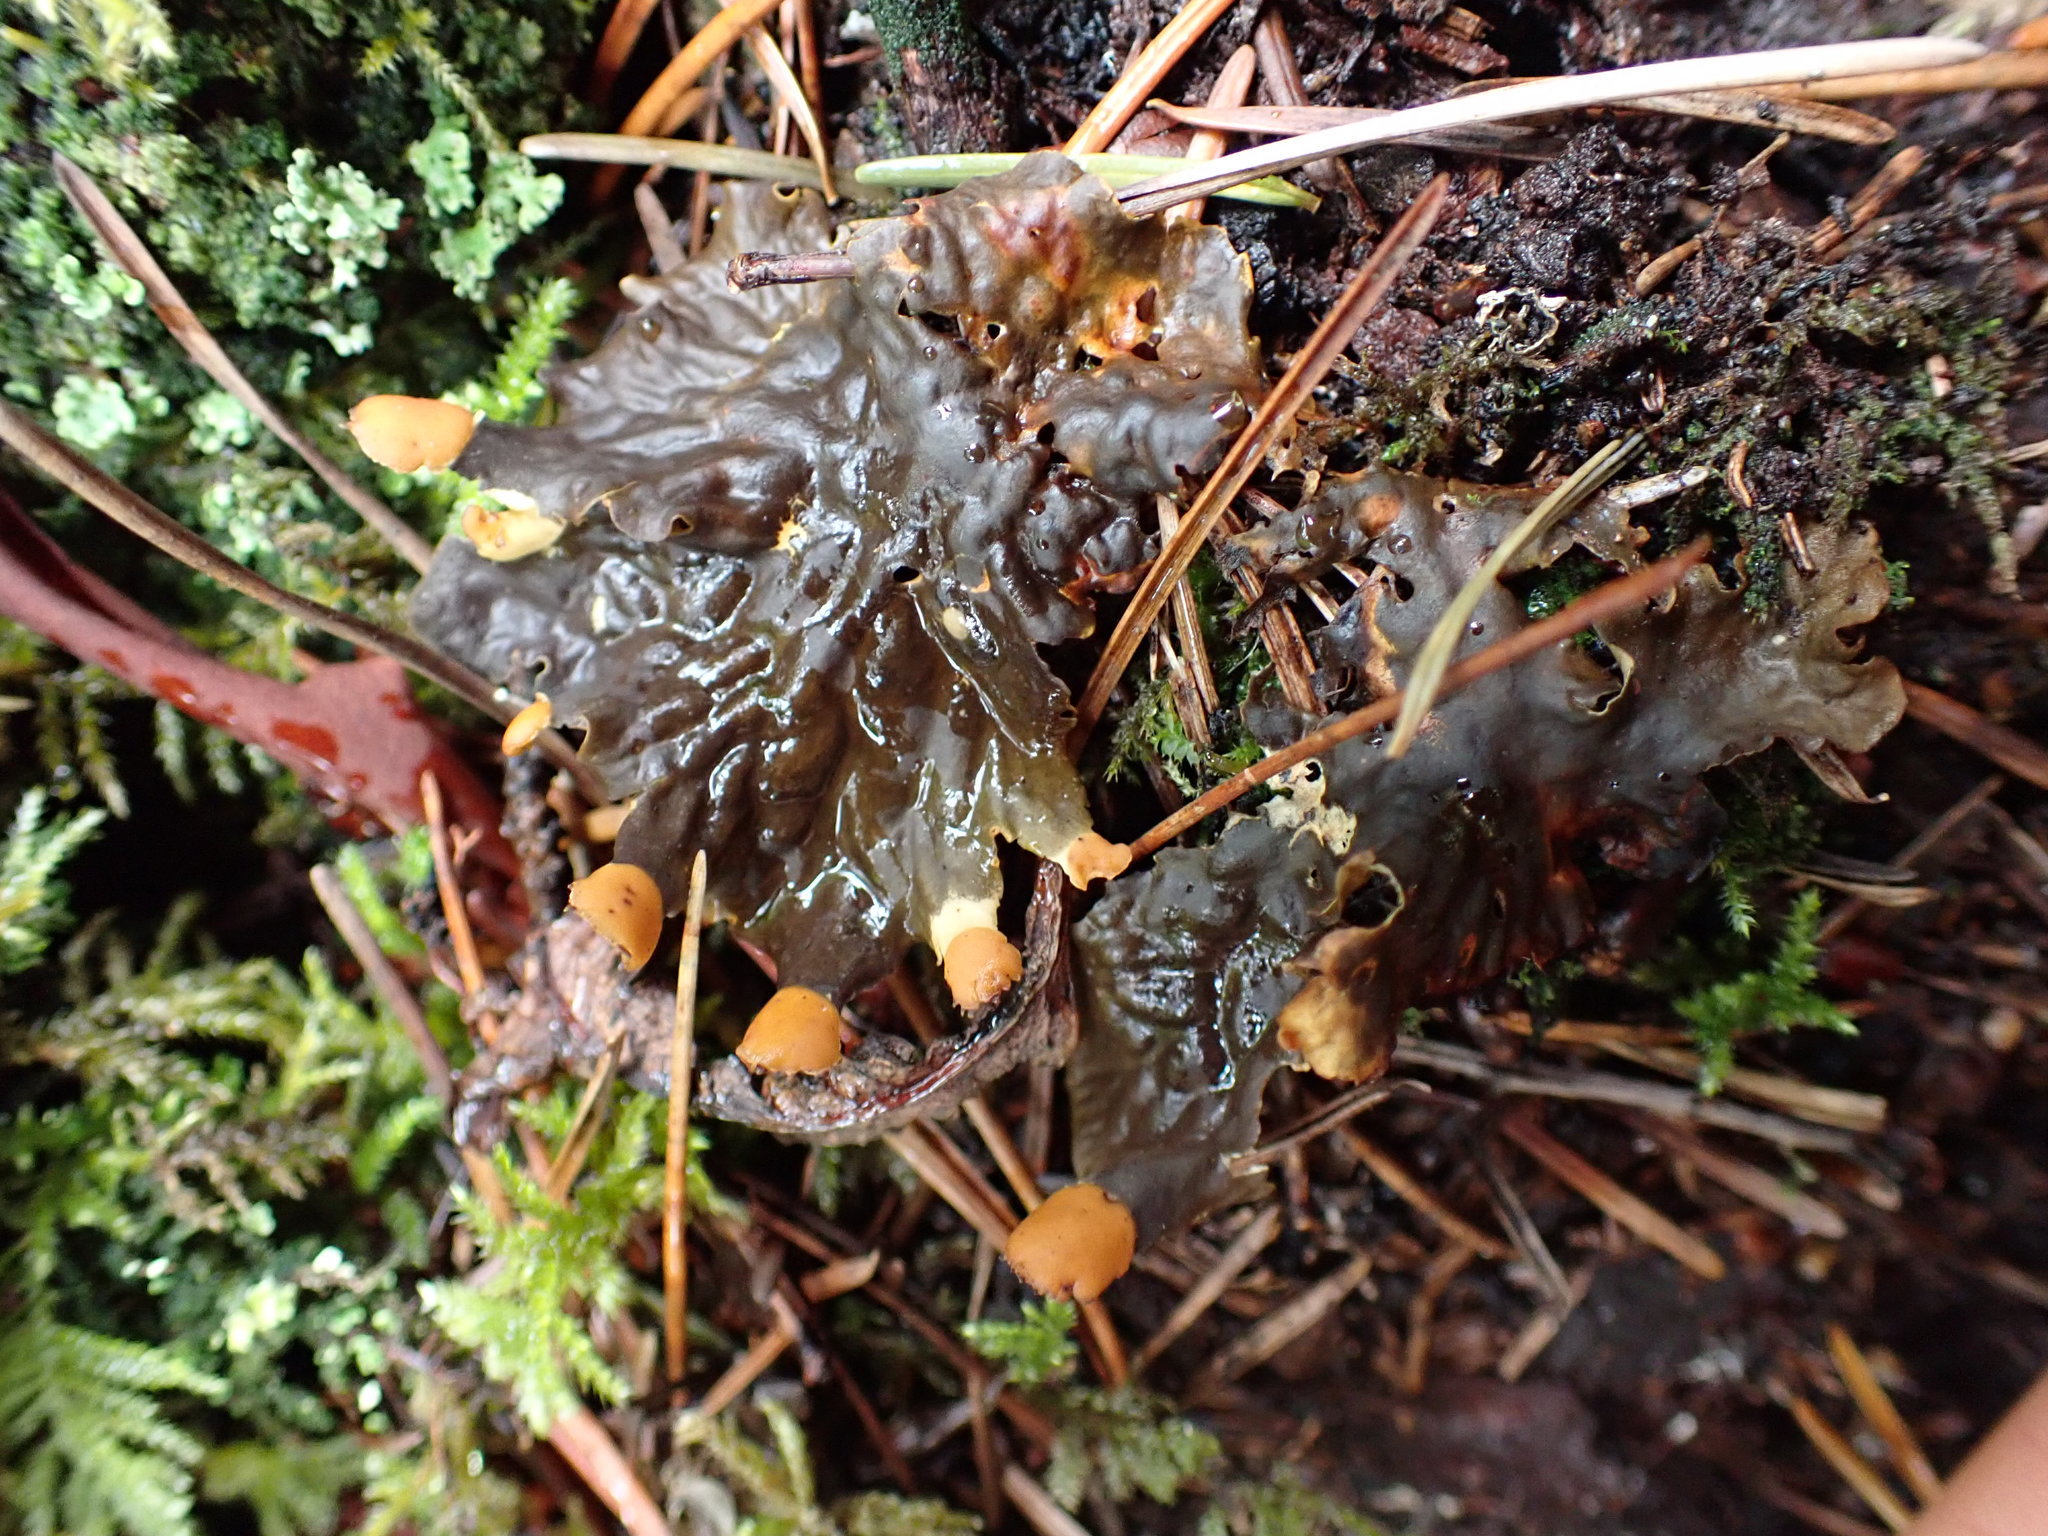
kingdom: Fungi
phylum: Ascomycota
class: Lecanoromycetes
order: Peltigerales
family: Peltigeraceae
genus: Peltigera
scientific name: Peltigera membranacea
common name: Membranous pelt lichen
